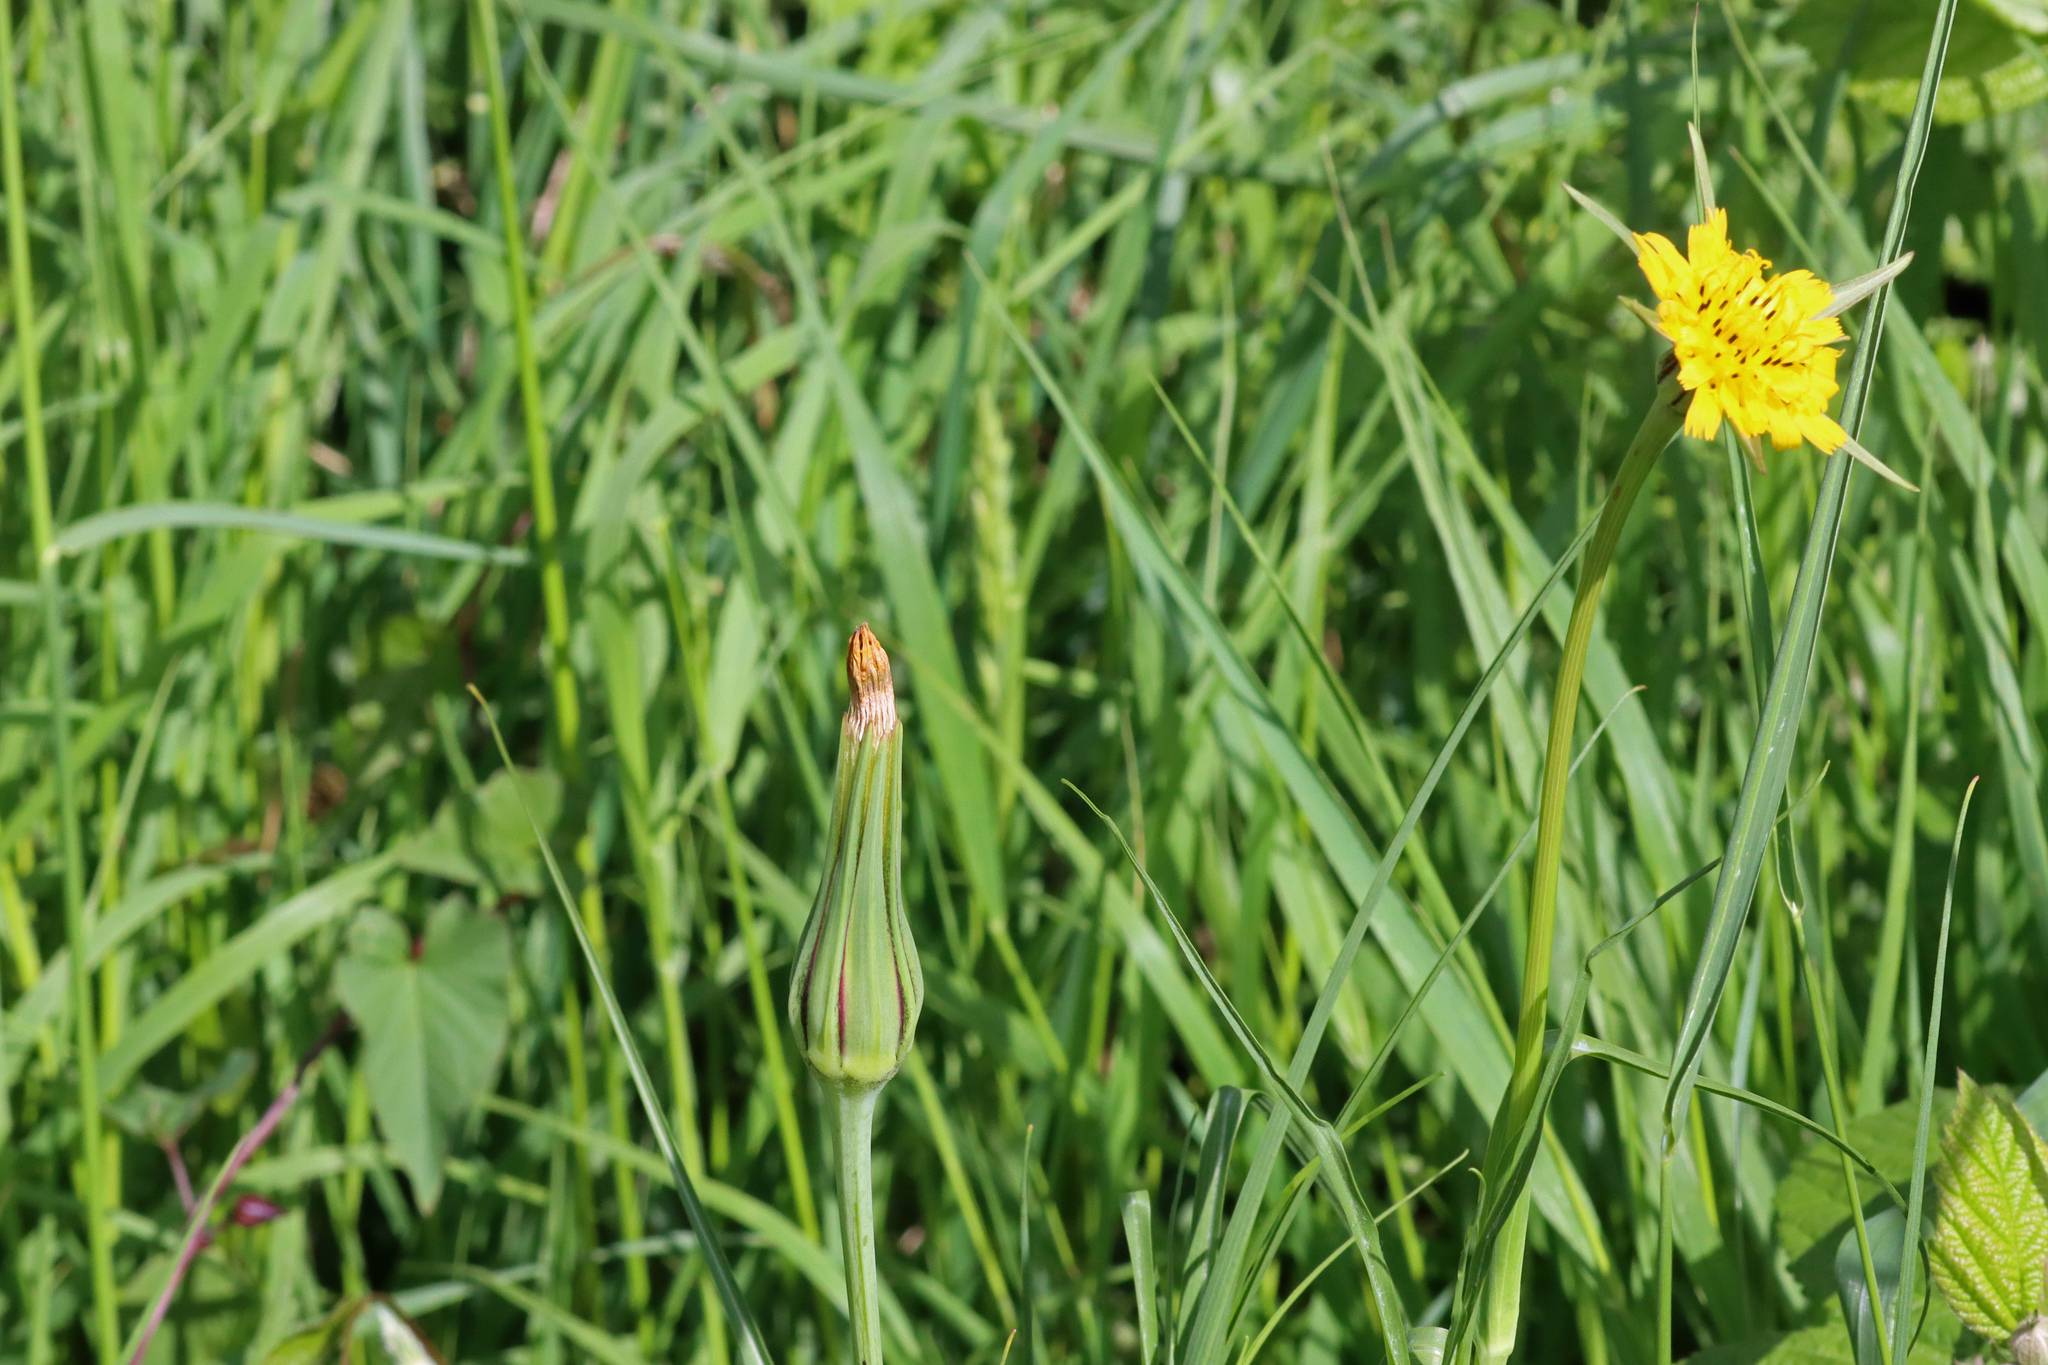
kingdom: Plantae
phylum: Tracheophyta
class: Magnoliopsida
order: Asterales
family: Asteraceae
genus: Tragopogon
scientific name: Tragopogon pratensis
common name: Goat's-beard
